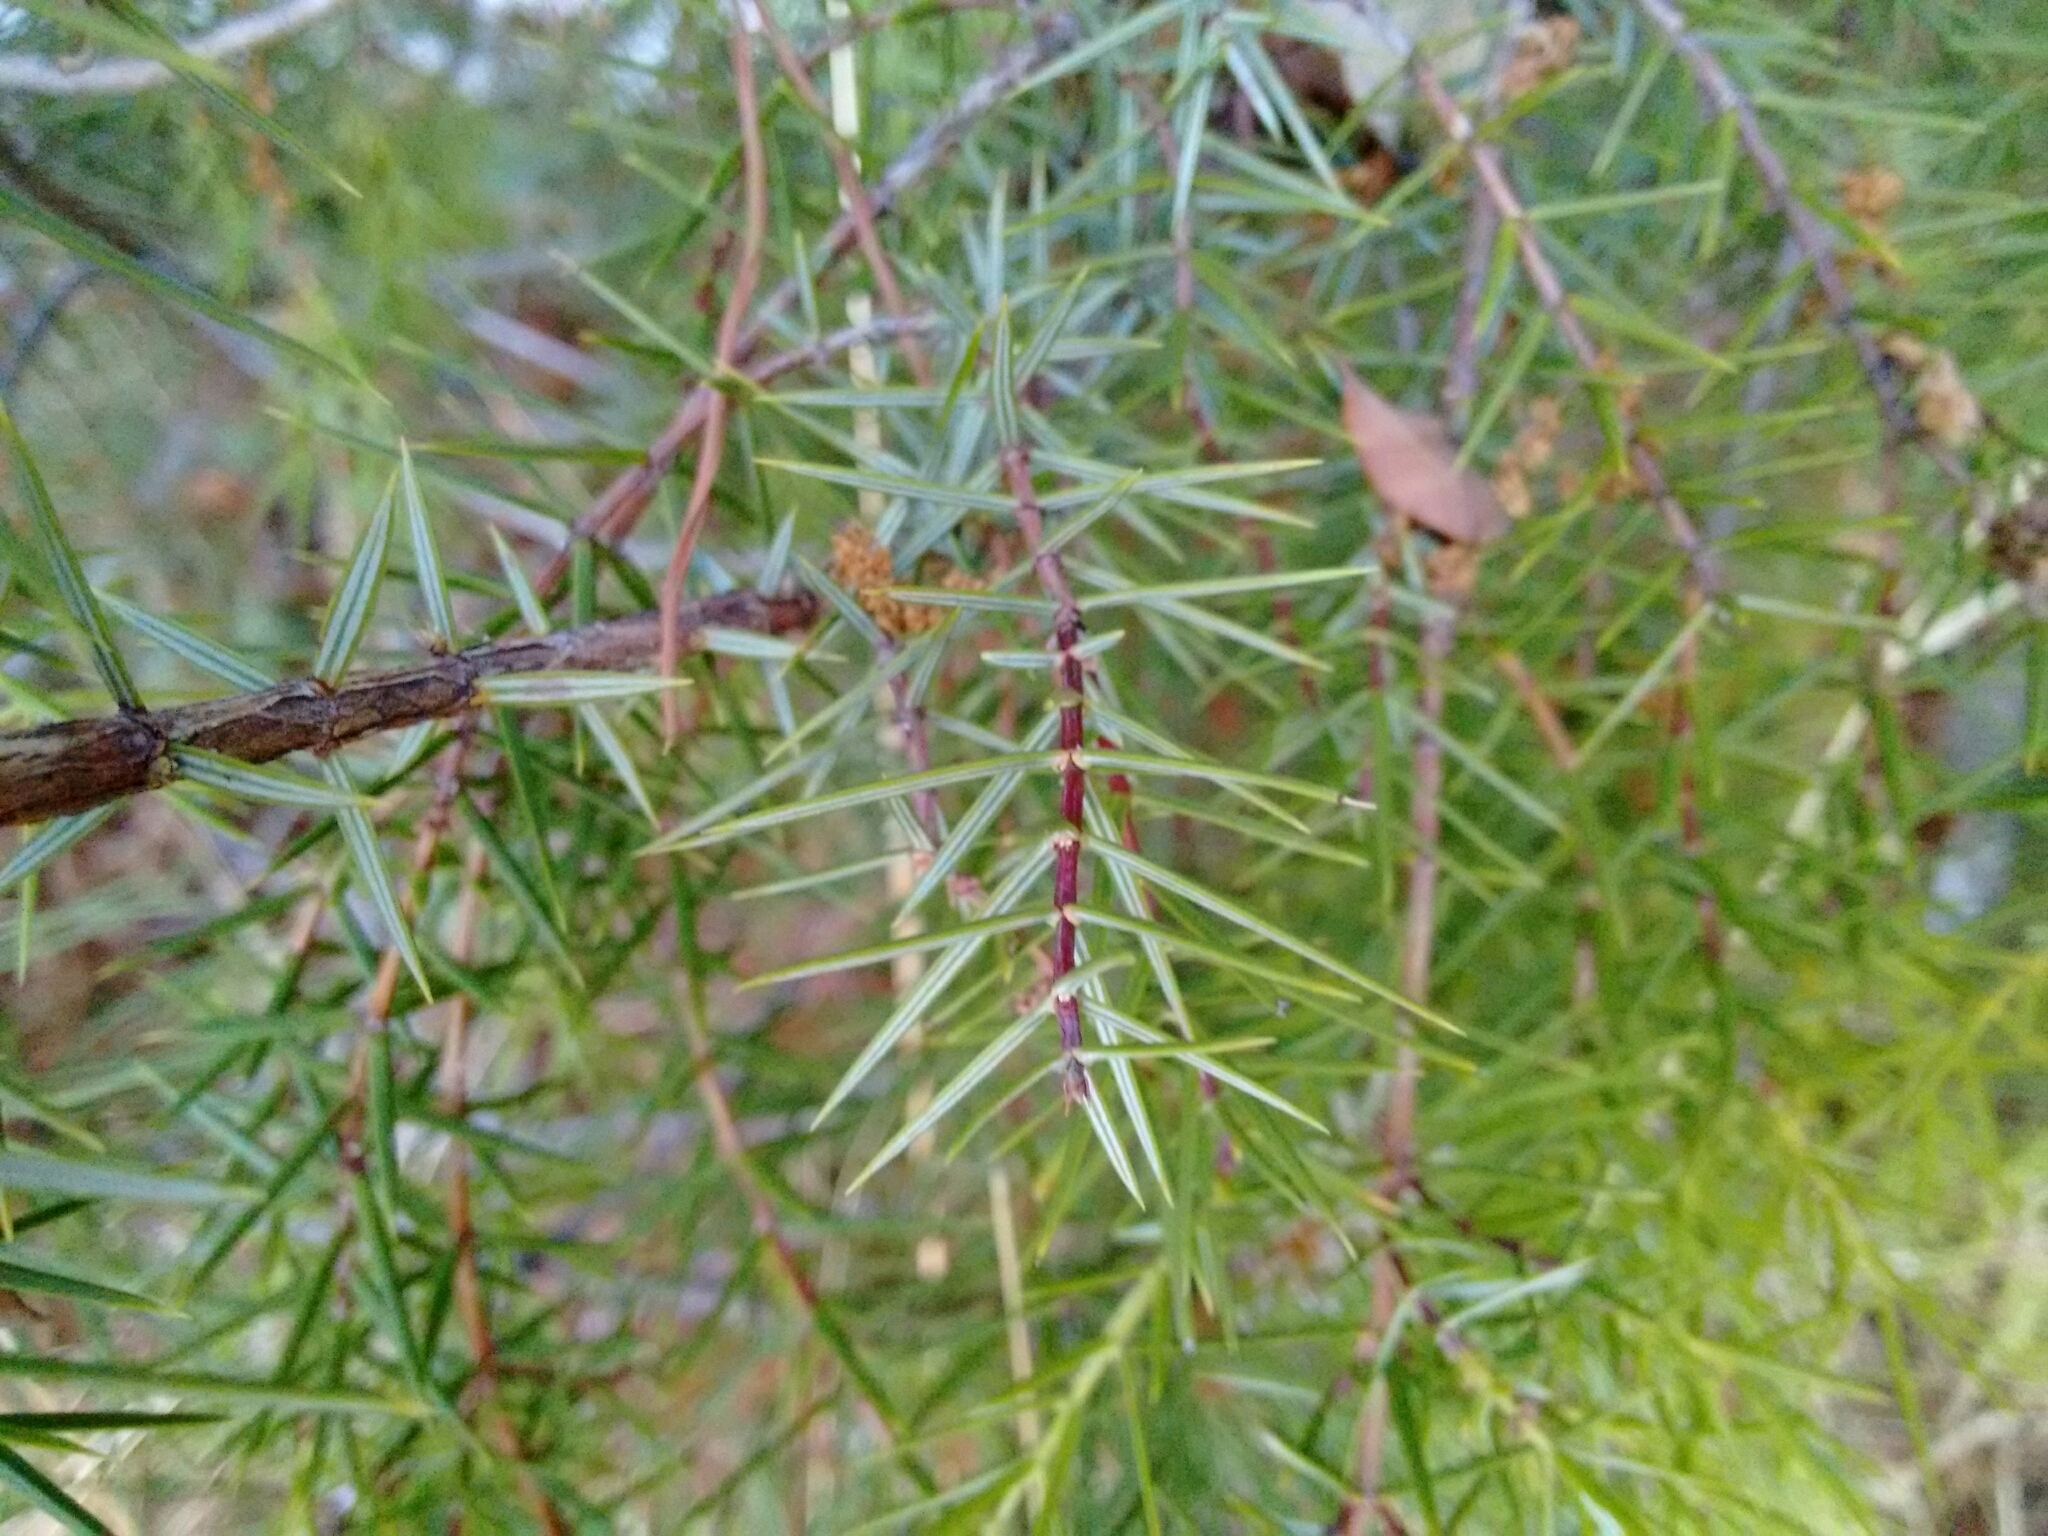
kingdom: Plantae
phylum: Tracheophyta
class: Pinopsida
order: Pinales
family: Cupressaceae
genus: Juniperus
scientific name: Juniperus oxycedrus
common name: Prickly juniper
